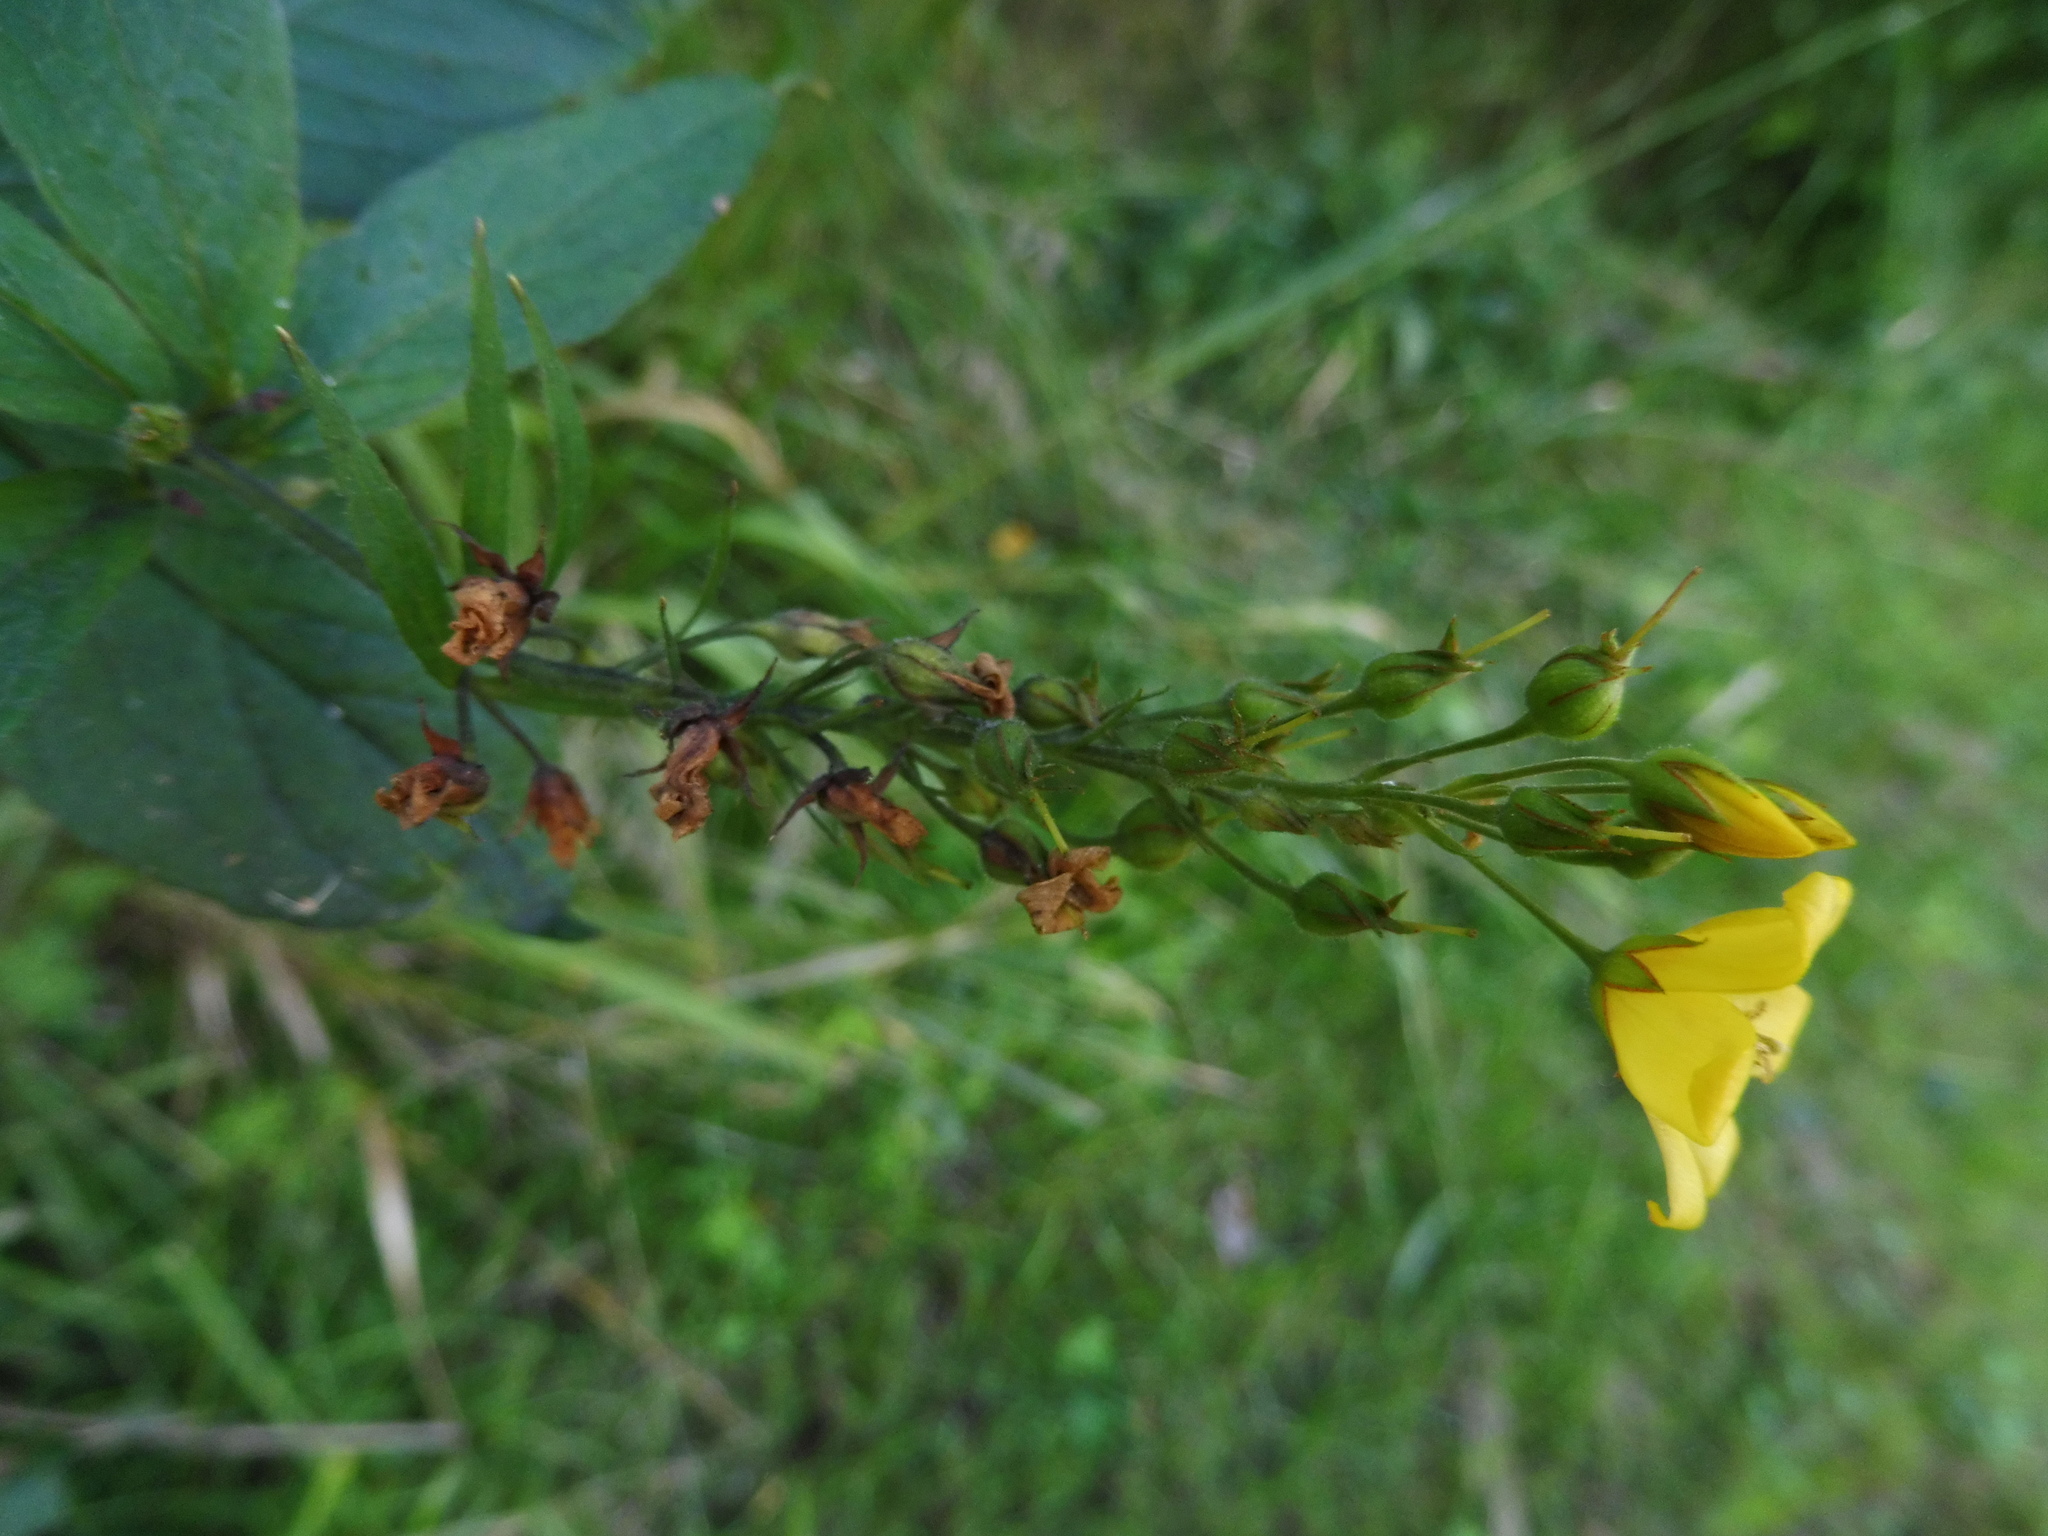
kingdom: Plantae
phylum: Tracheophyta
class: Magnoliopsida
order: Ericales
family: Primulaceae
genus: Lysimachia
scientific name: Lysimachia vulgaris
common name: Yellow loosestrife
